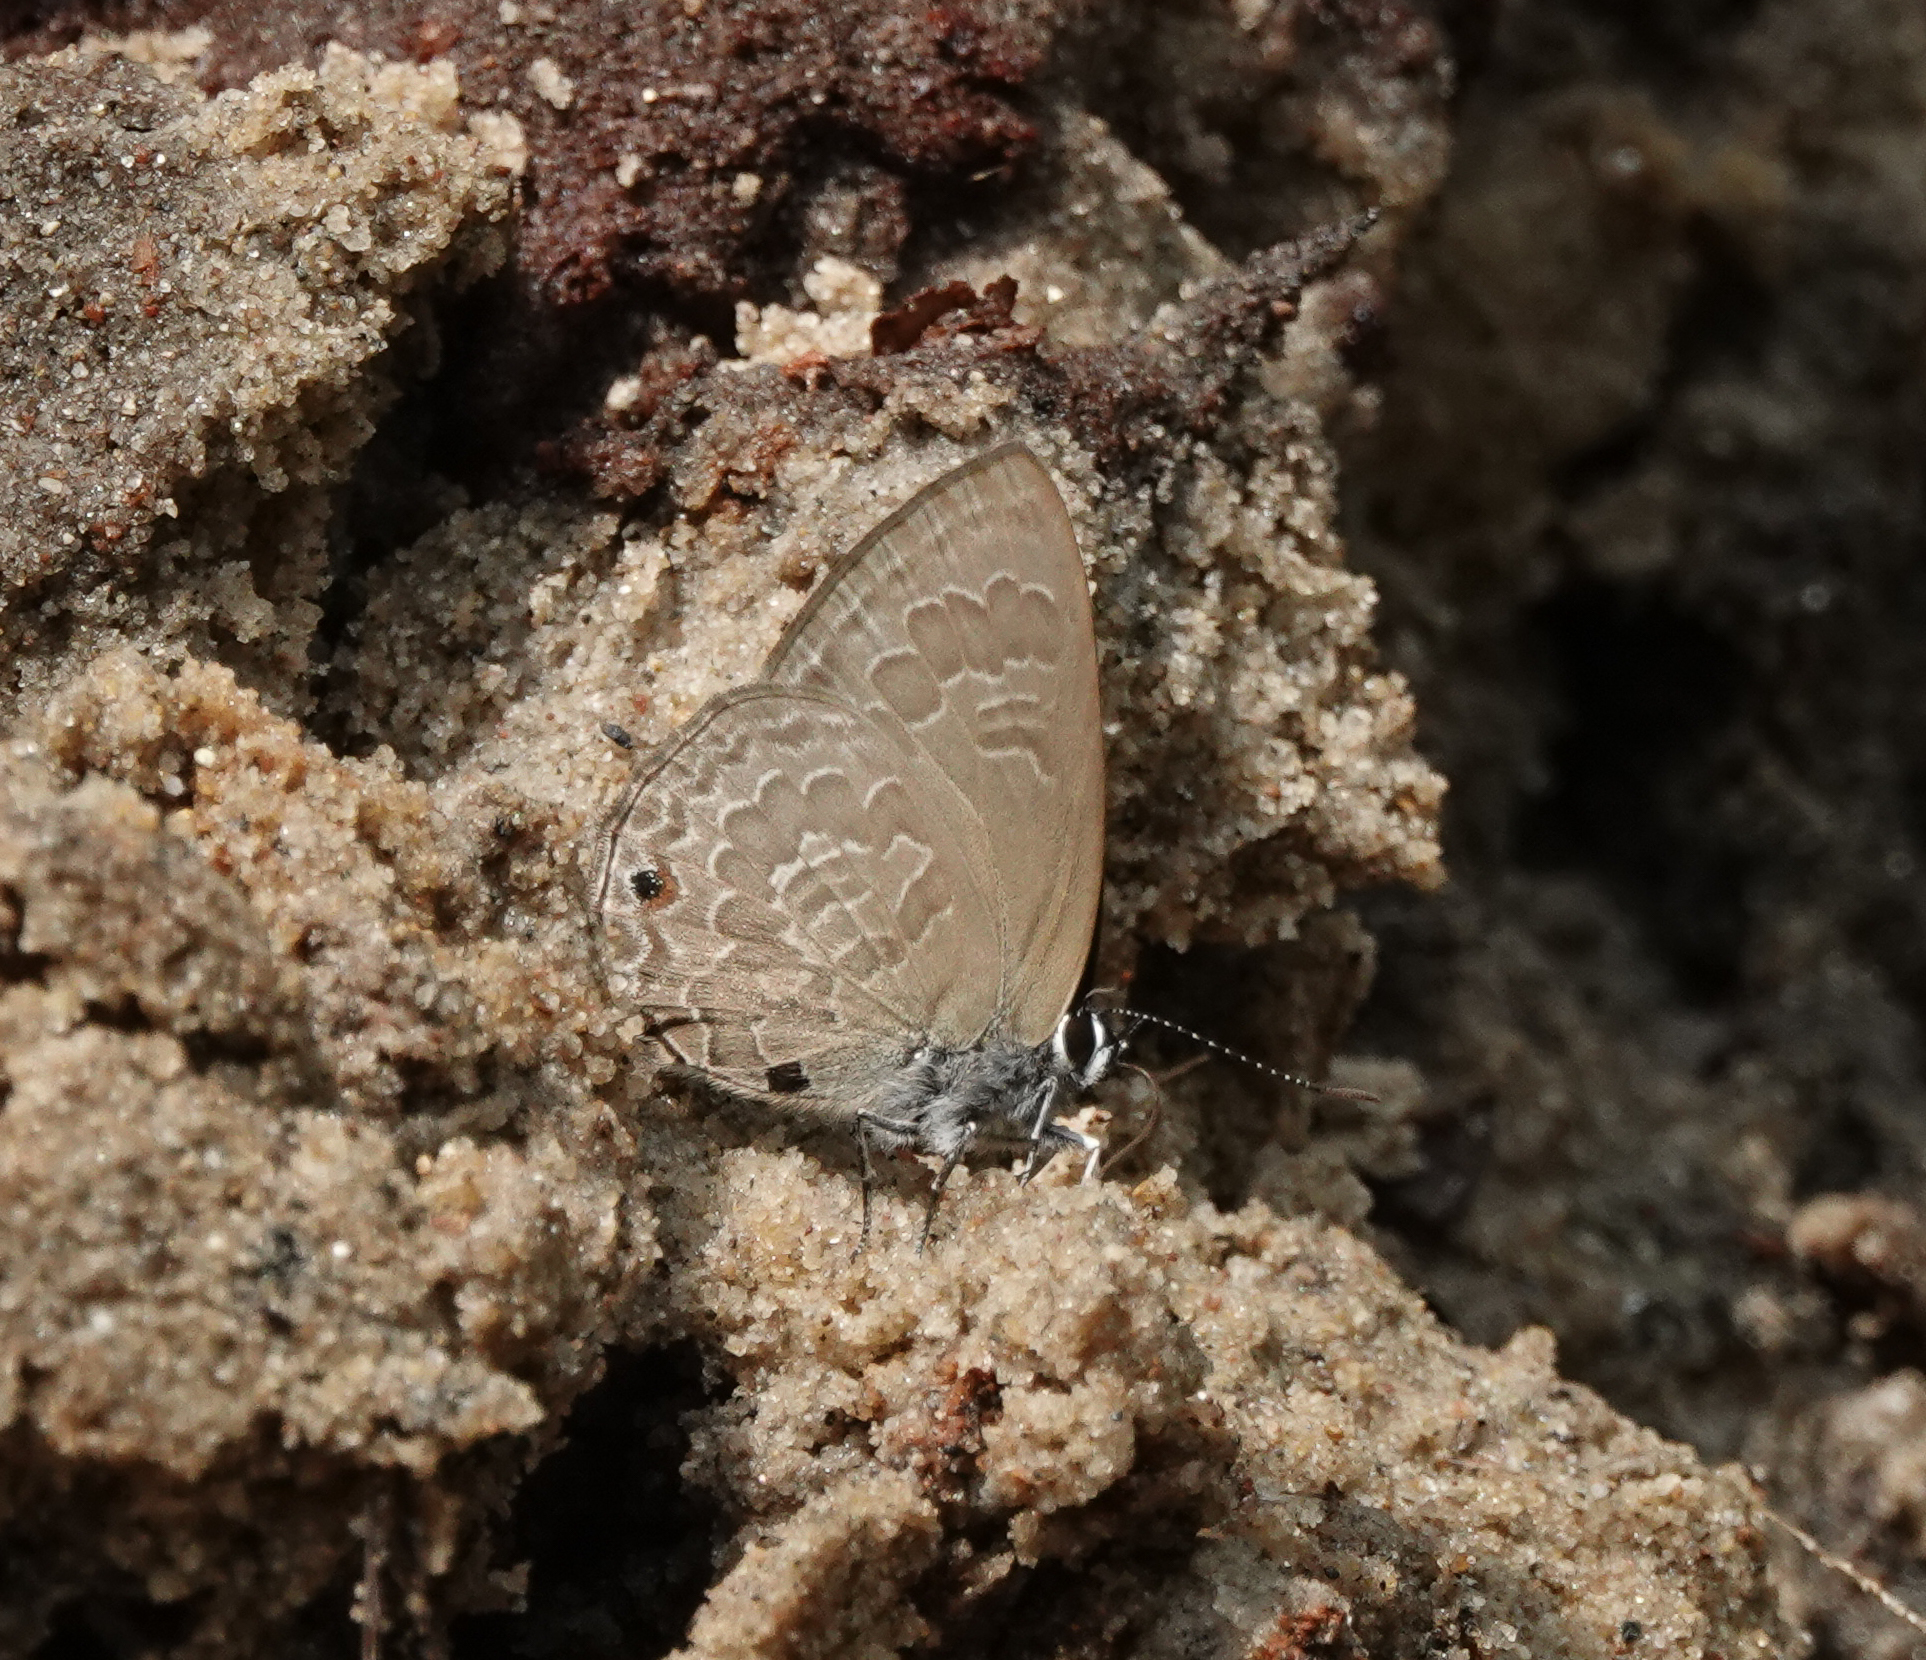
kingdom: Animalia
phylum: Arthropoda
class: Insecta
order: Lepidoptera
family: Lycaenidae
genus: Anthene
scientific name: Anthene emolus
